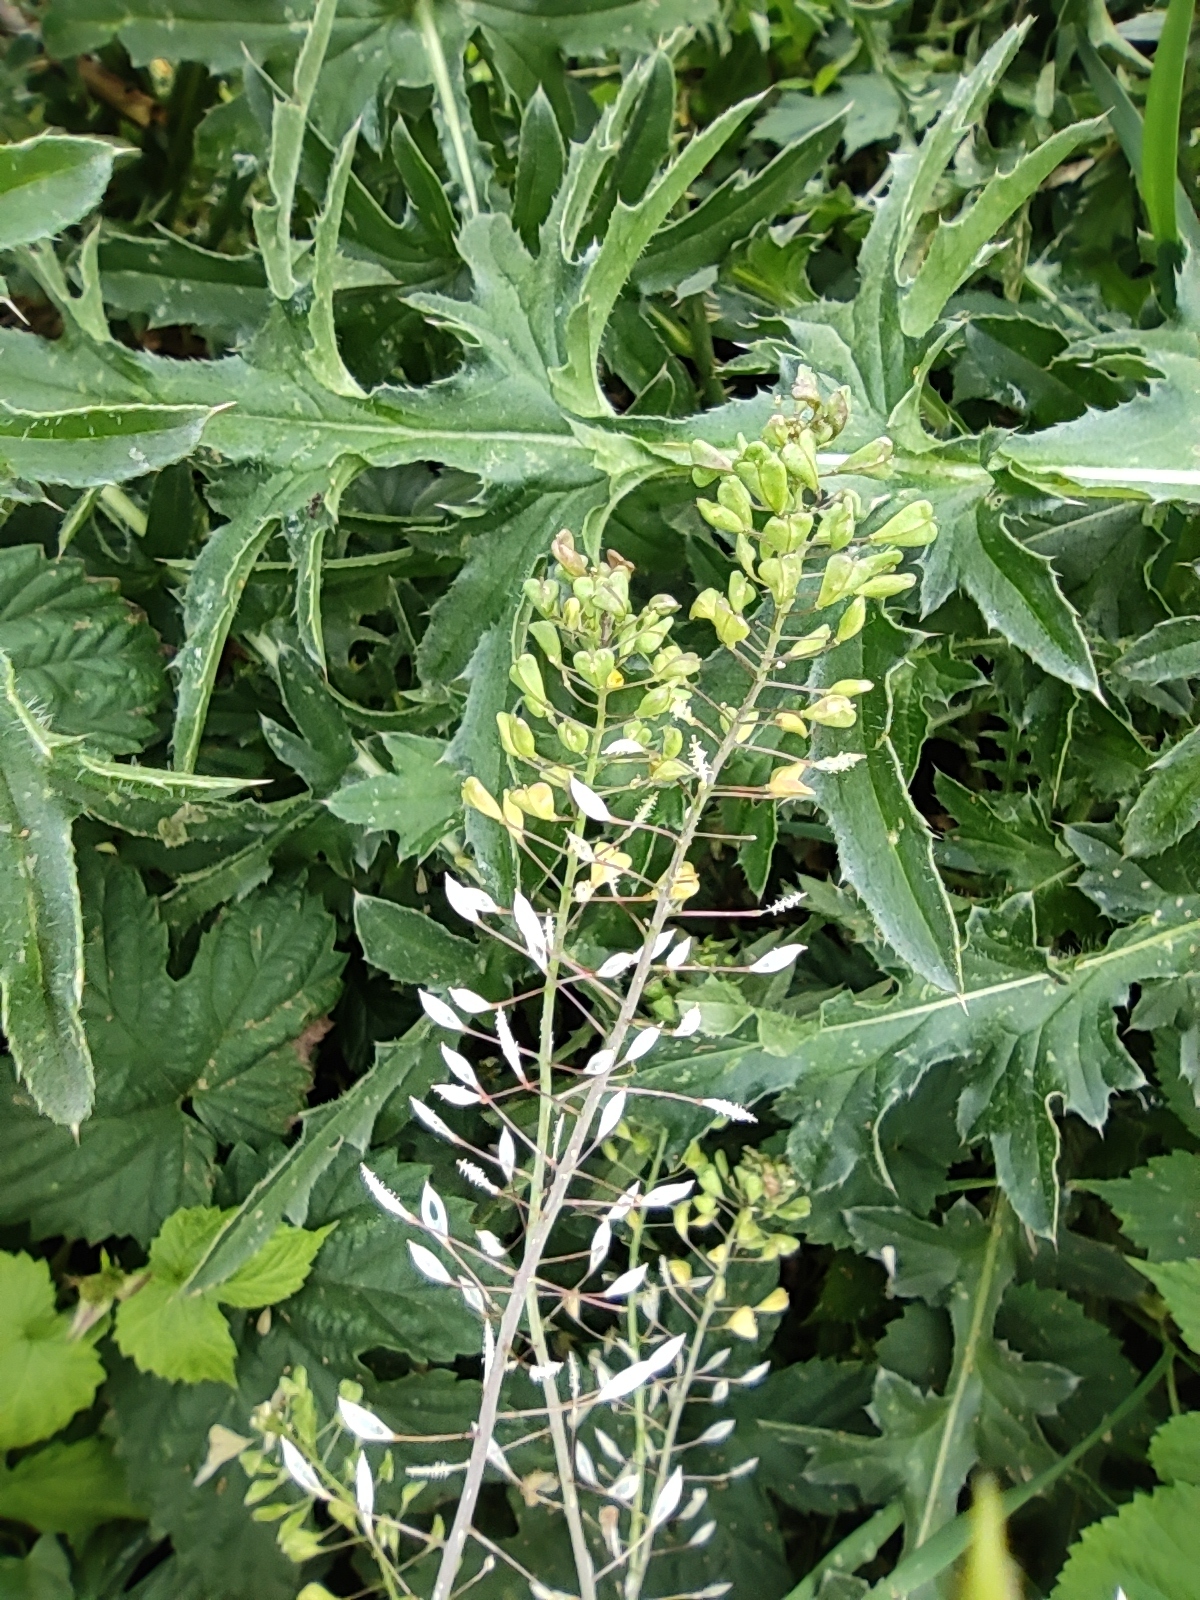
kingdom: Plantae
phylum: Tracheophyta
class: Magnoliopsida
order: Brassicales
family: Brassicaceae
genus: Capsella
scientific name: Capsella bursa-pastoris
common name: Shepherd's purse
